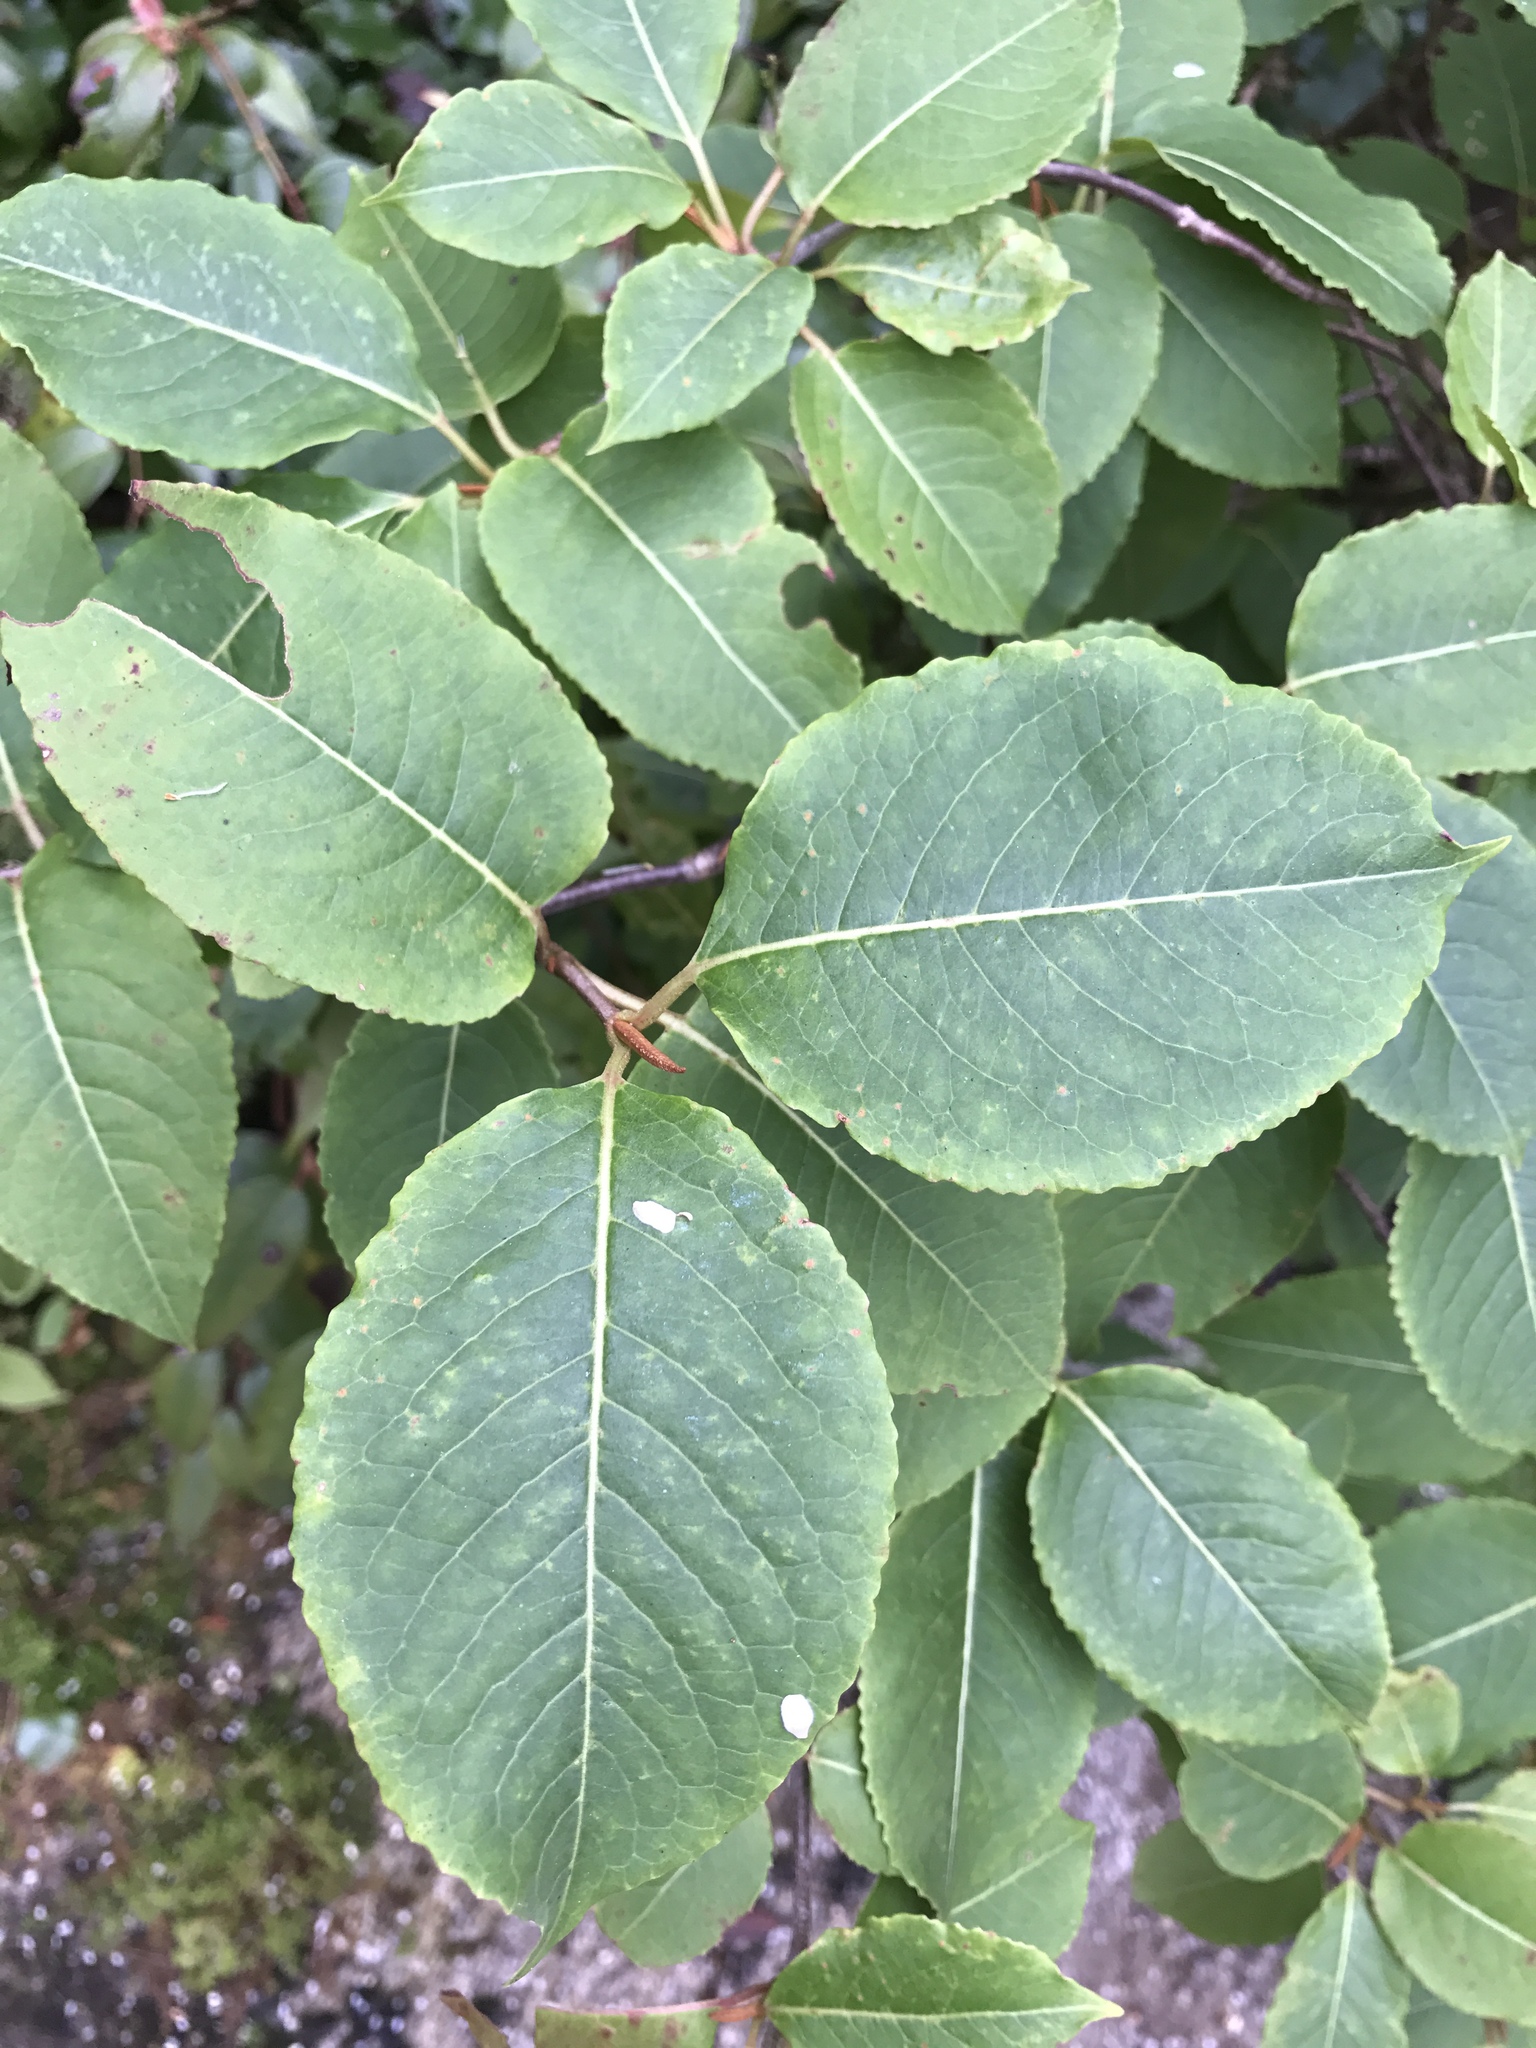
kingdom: Plantae
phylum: Tracheophyta
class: Magnoliopsida
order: Dipsacales
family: Viburnaceae
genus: Viburnum
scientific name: Viburnum cassinoides
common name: Swamp haw
